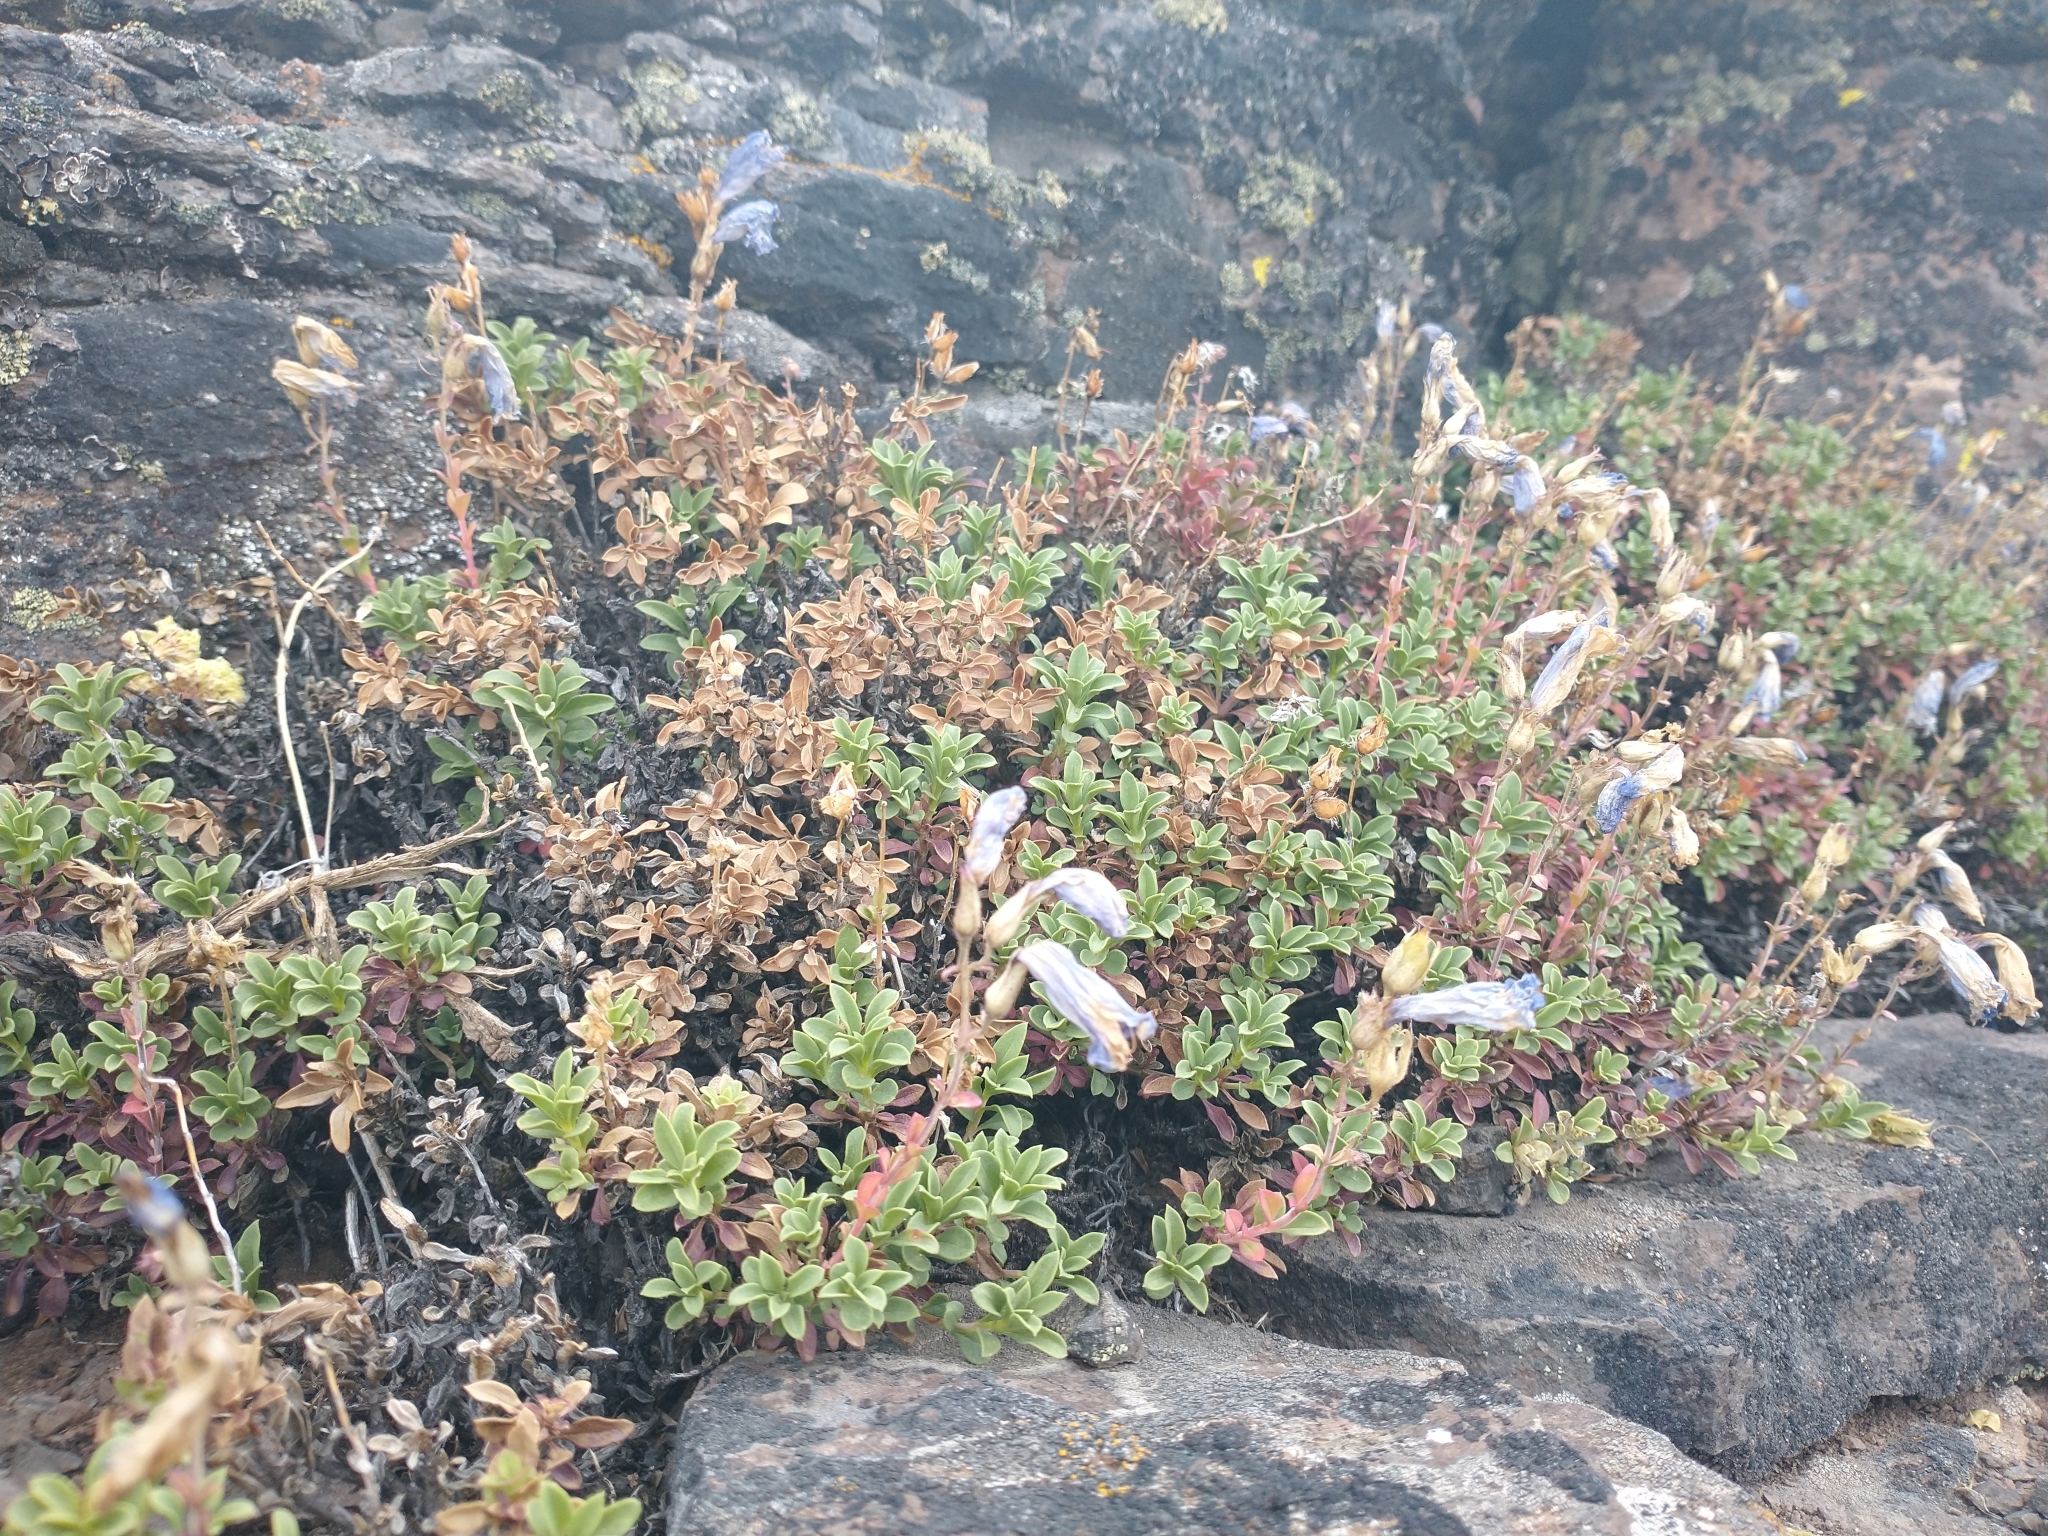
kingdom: Plantae
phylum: Tracheophyta
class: Magnoliopsida
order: Lamiales
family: Plantaginaceae
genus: Penstemon
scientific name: Penstemon davidsonii
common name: Davidson's penstemon
